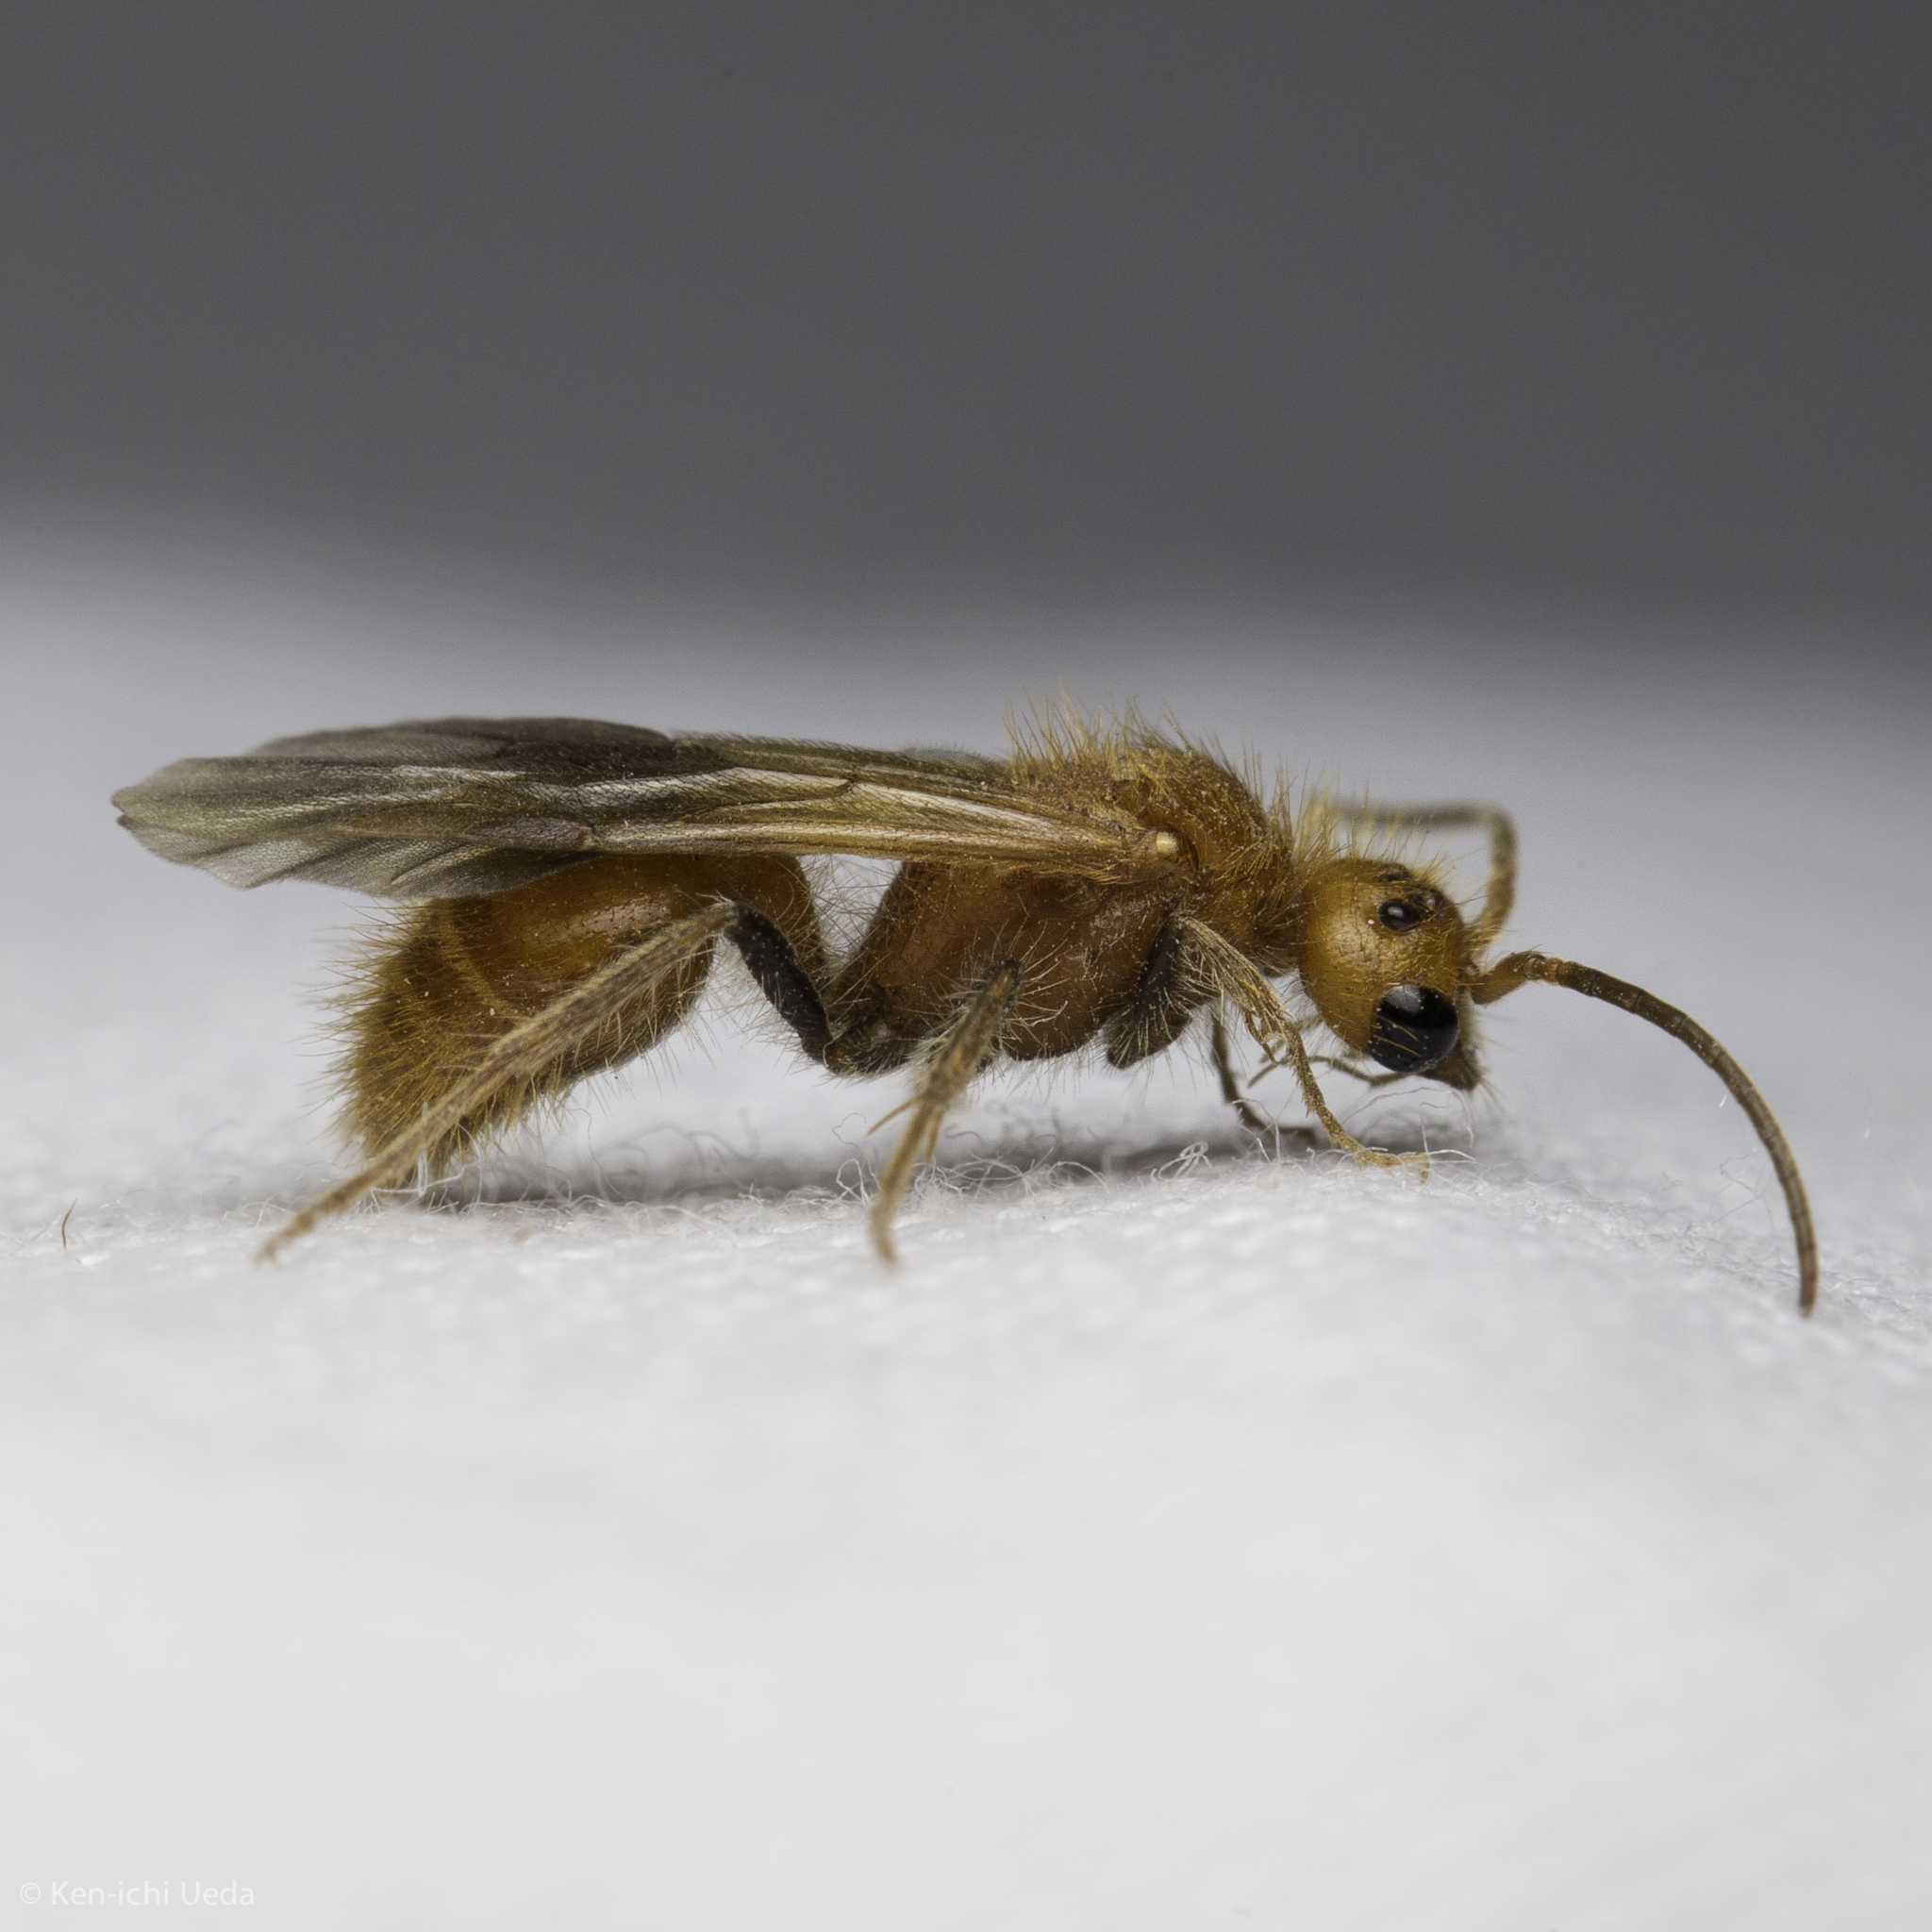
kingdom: Animalia
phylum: Arthropoda
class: Insecta
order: Hymenoptera
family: Mutillidae
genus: Sphaeropthalma
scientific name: Sphaeropthalma unicolor
